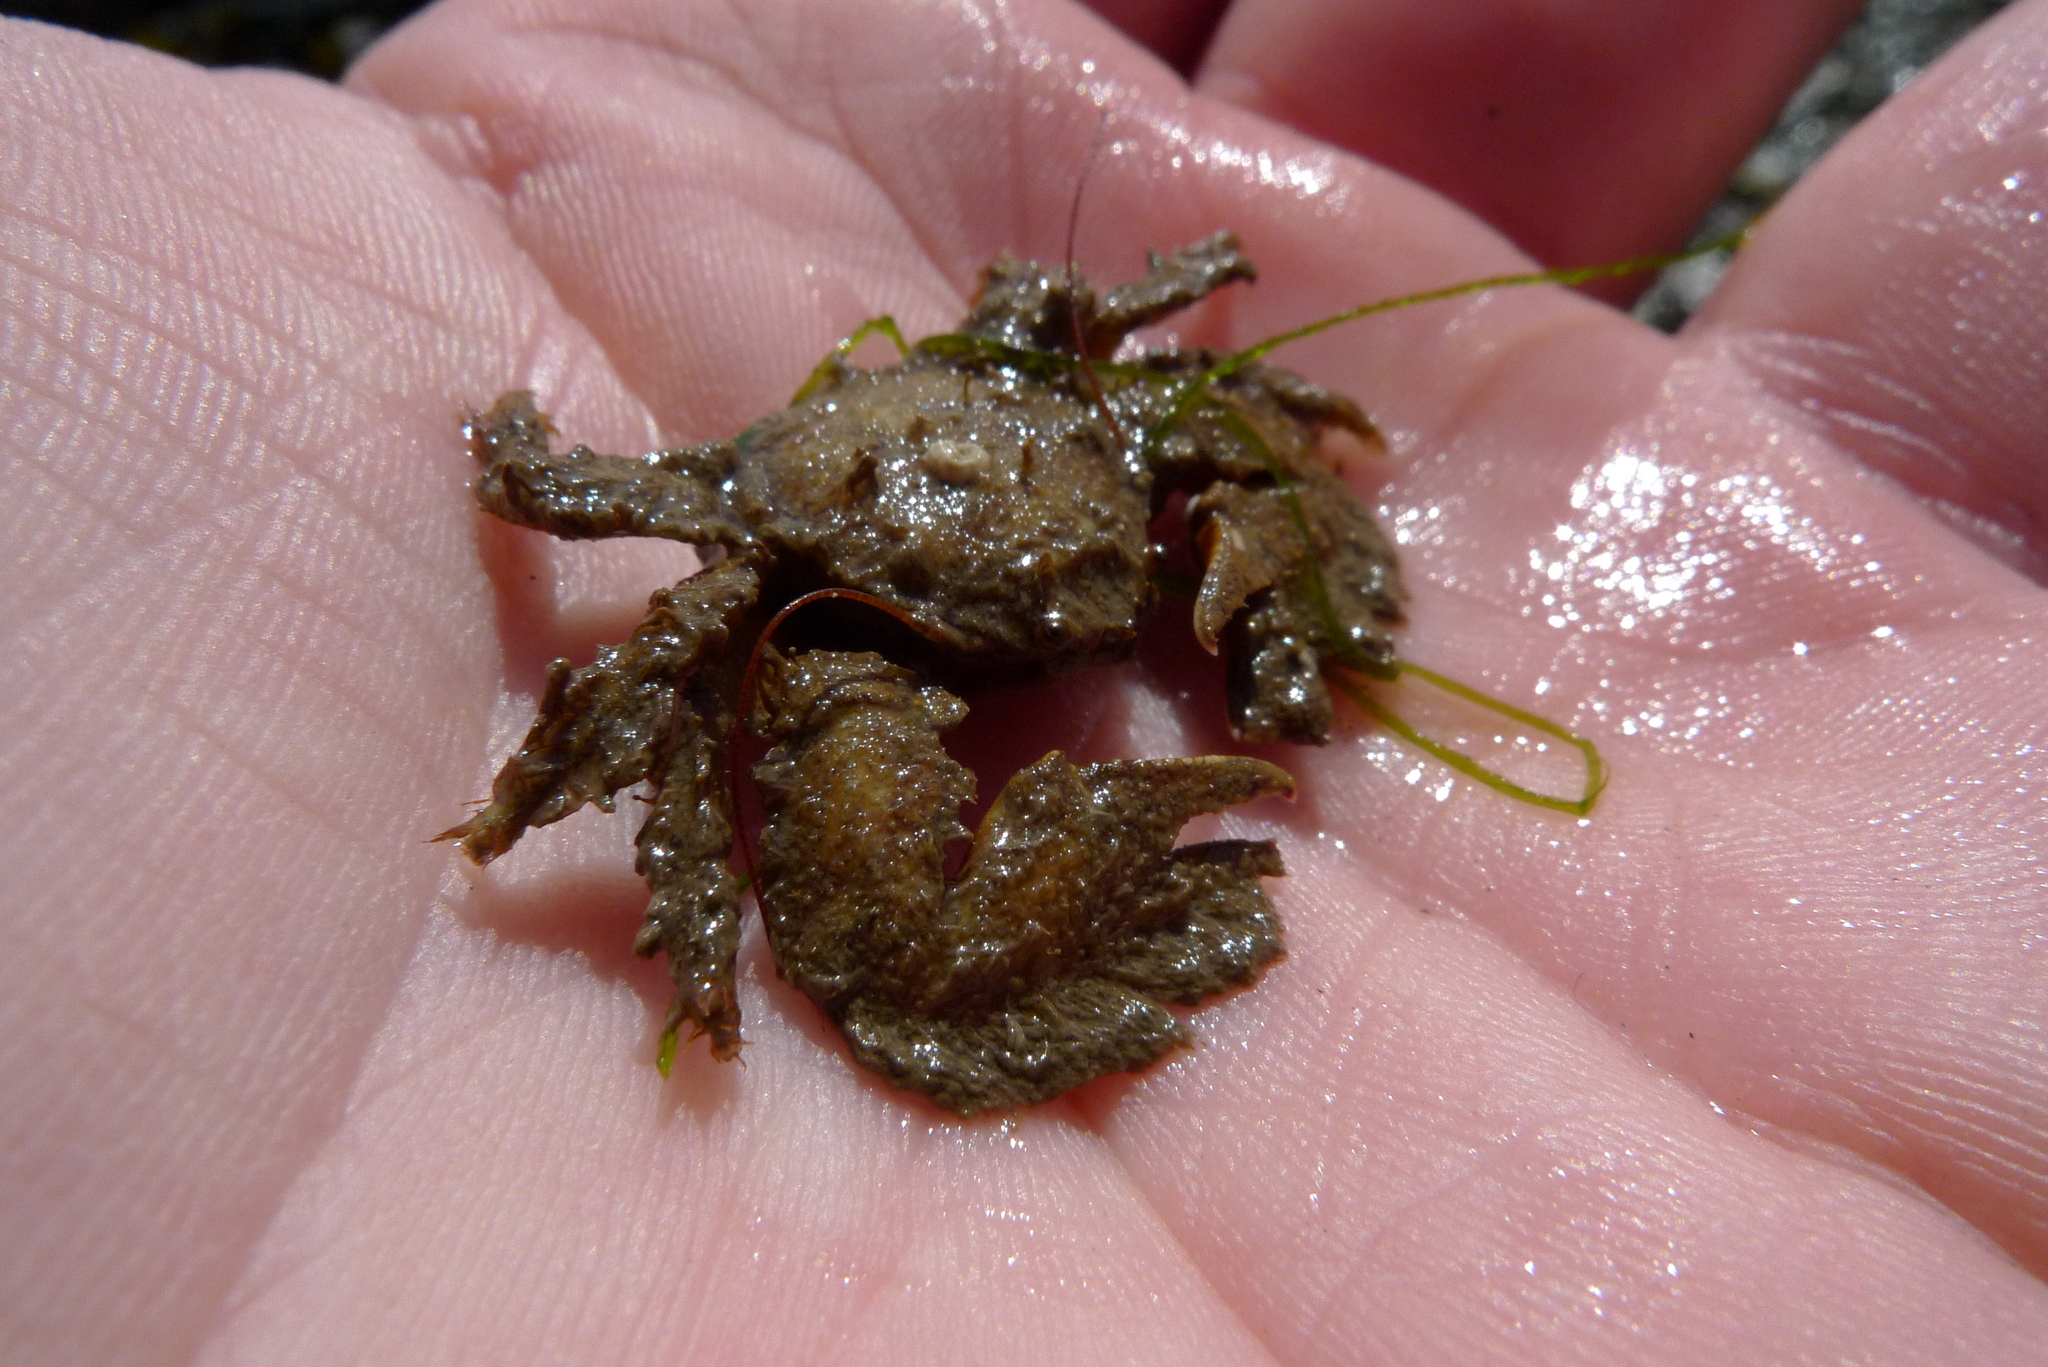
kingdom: Animalia
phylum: Arthropoda
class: Malacostraca
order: Decapoda
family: Porcellanidae
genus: Porcellana
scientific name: Porcellana platycheles
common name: Porcelain crab
